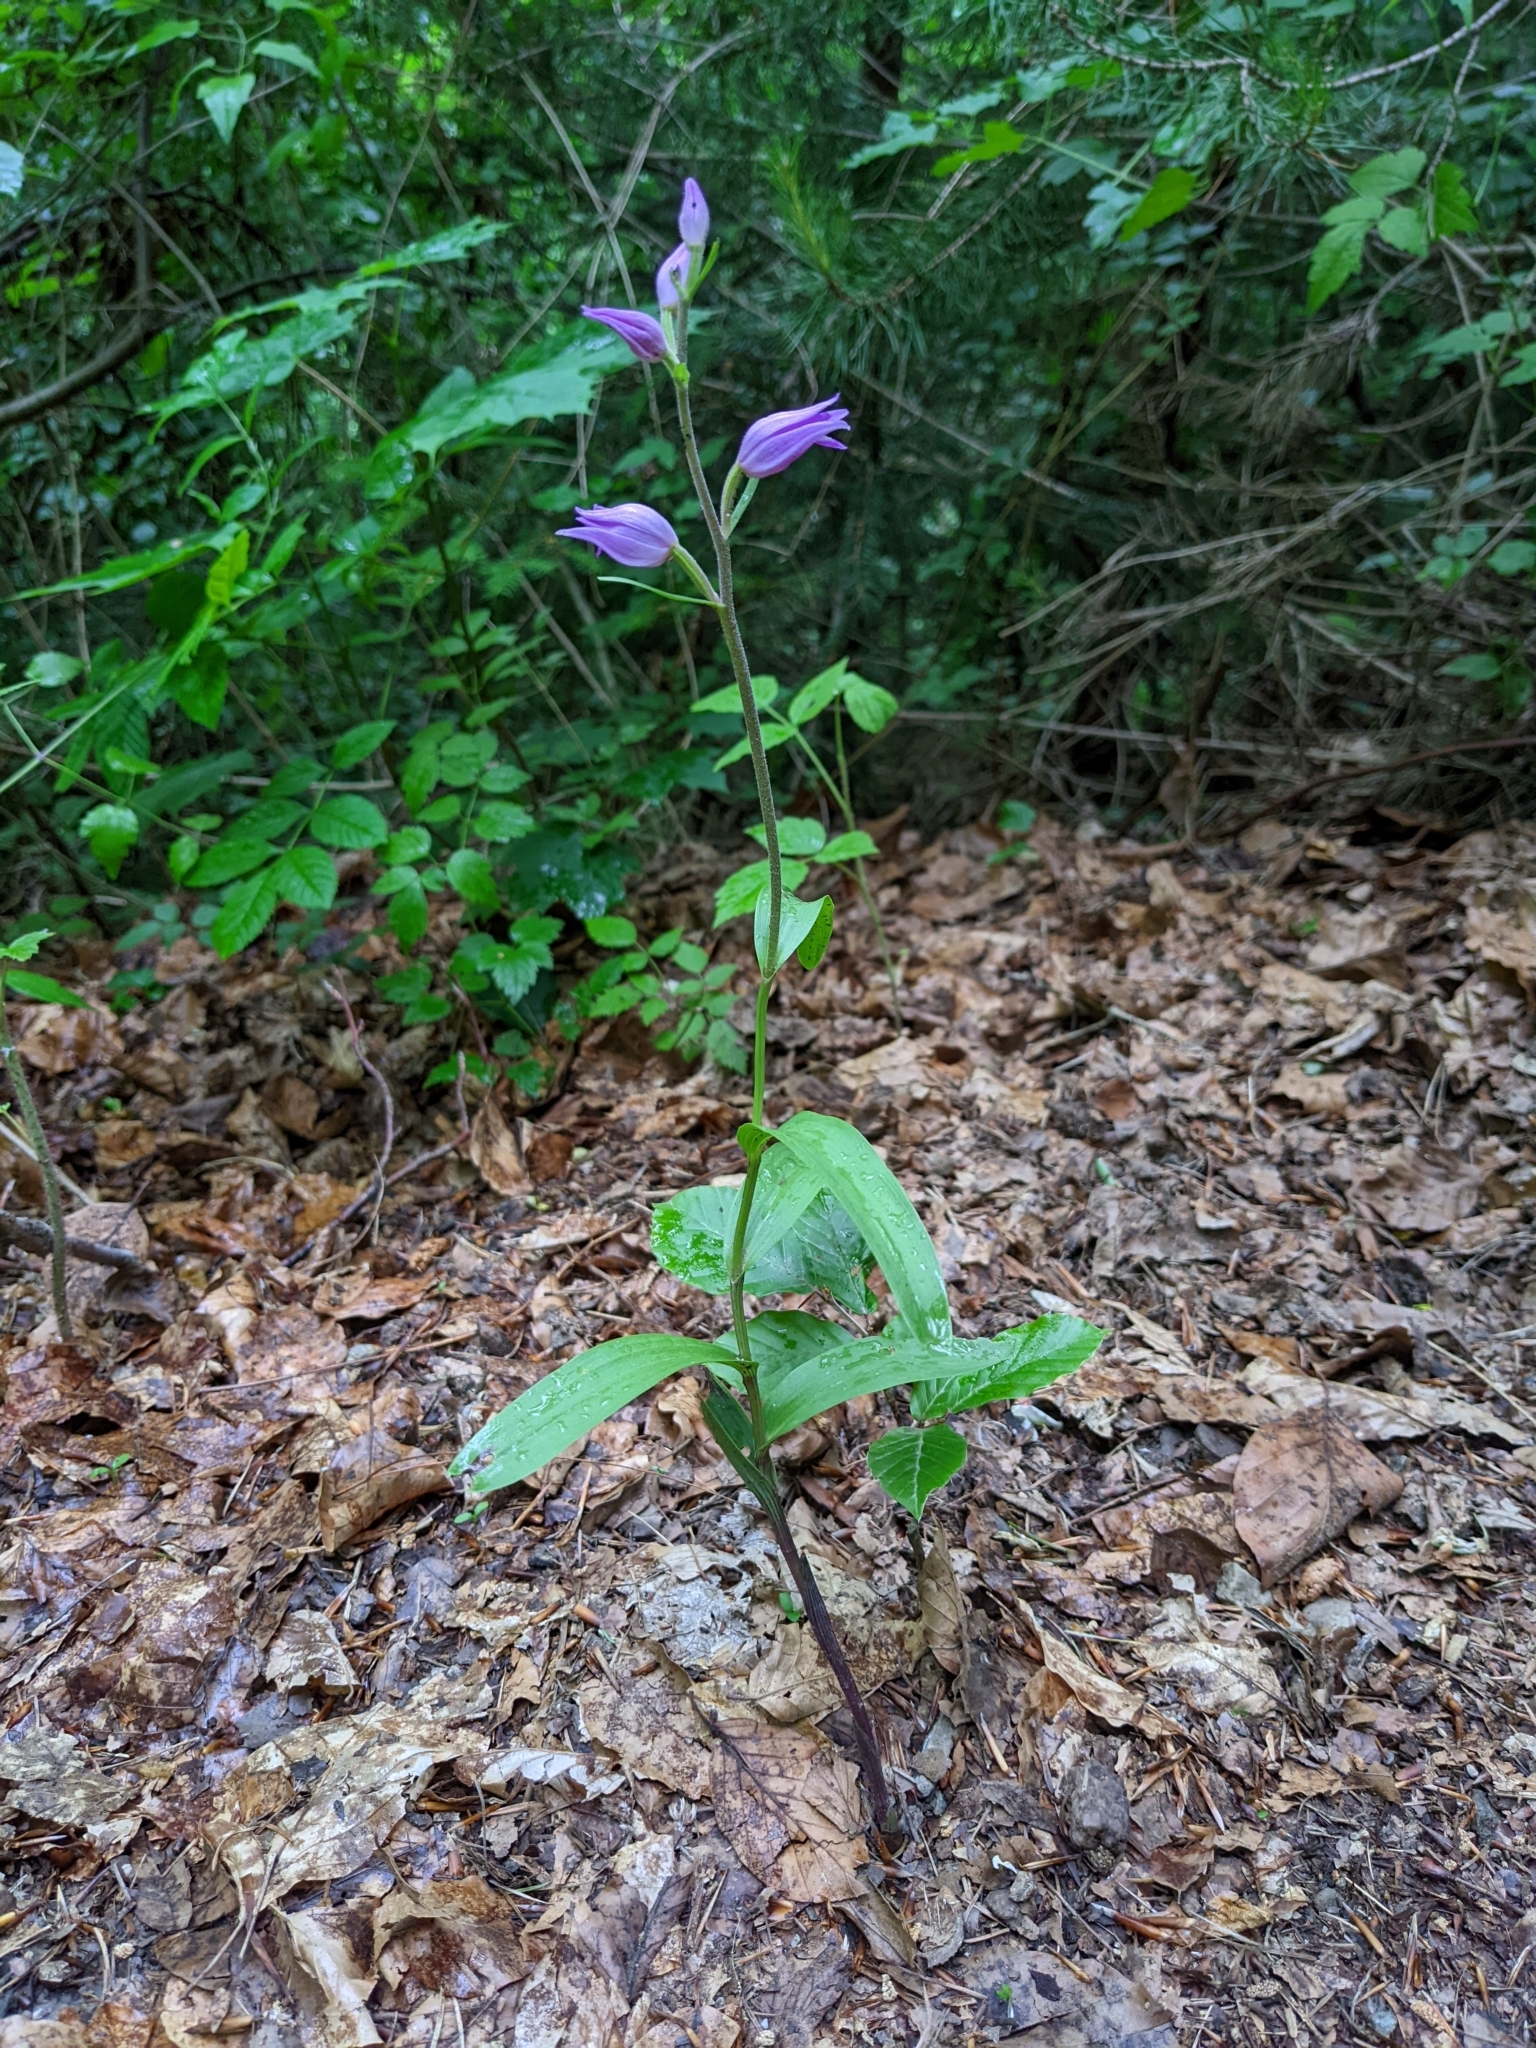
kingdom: Plantae
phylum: Tracheophyta
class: Liliopsida
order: Asparagales
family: Orchidaceae
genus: Cephalanthera
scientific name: Cephalanthera rubra
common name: Red helleborine
